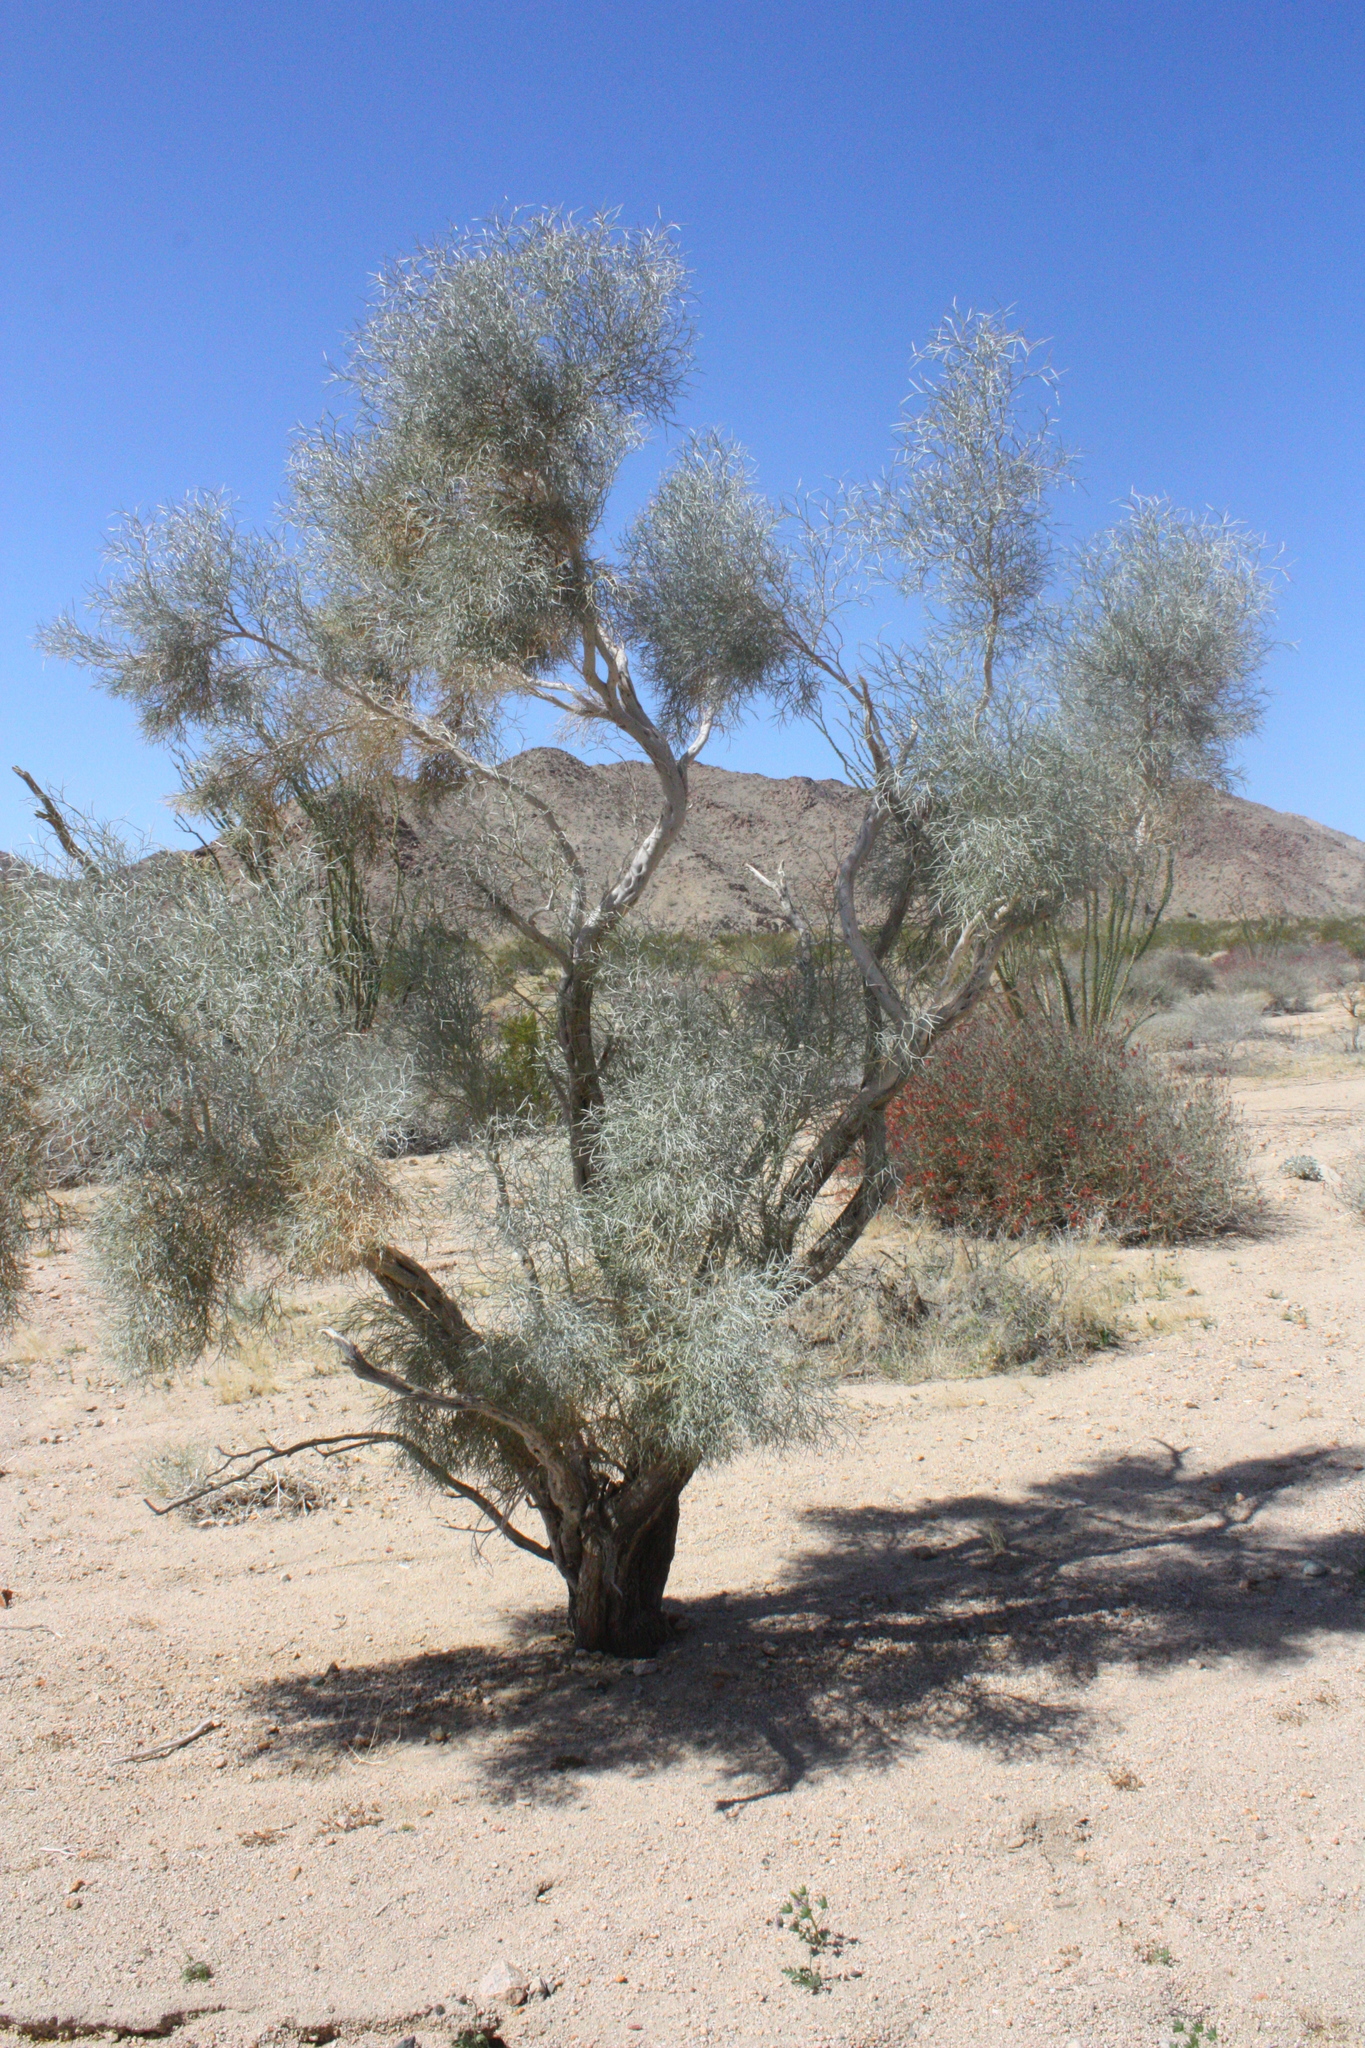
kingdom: Plantae
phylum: Tracheophyta
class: Magnoliopsida
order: Fabales
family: Fabaceae
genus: Psorothamnus
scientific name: Psorothamnus spinosus
